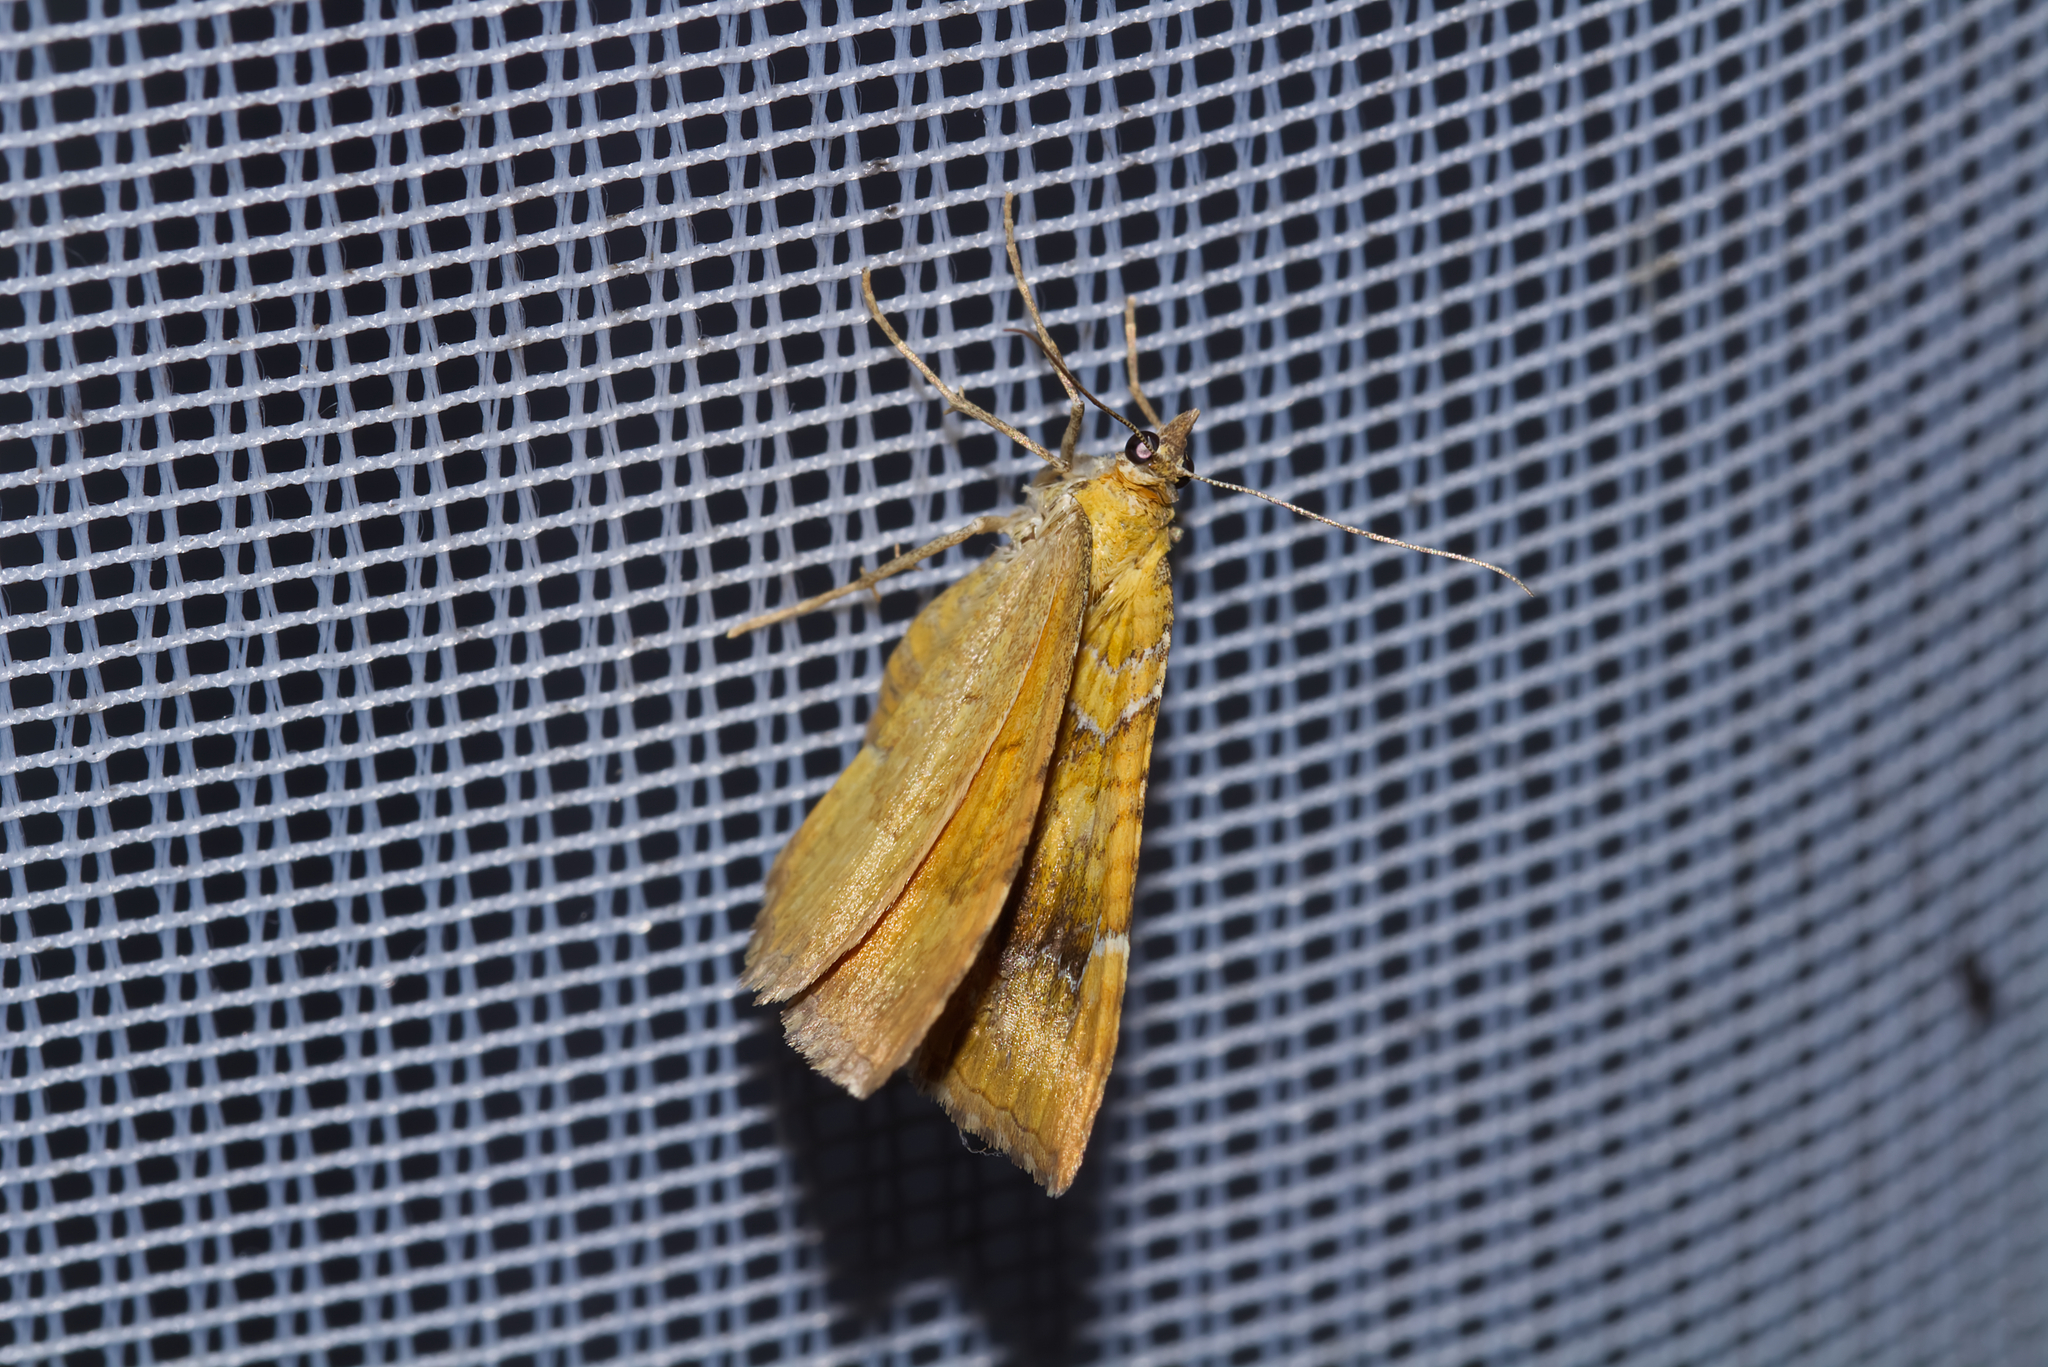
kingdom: Animalia
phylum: Arthropoda
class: Insecta
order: Lepidoptera
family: Geometridae
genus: Camptogramma
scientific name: Camptogramma bilineata
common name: Yellow shell
